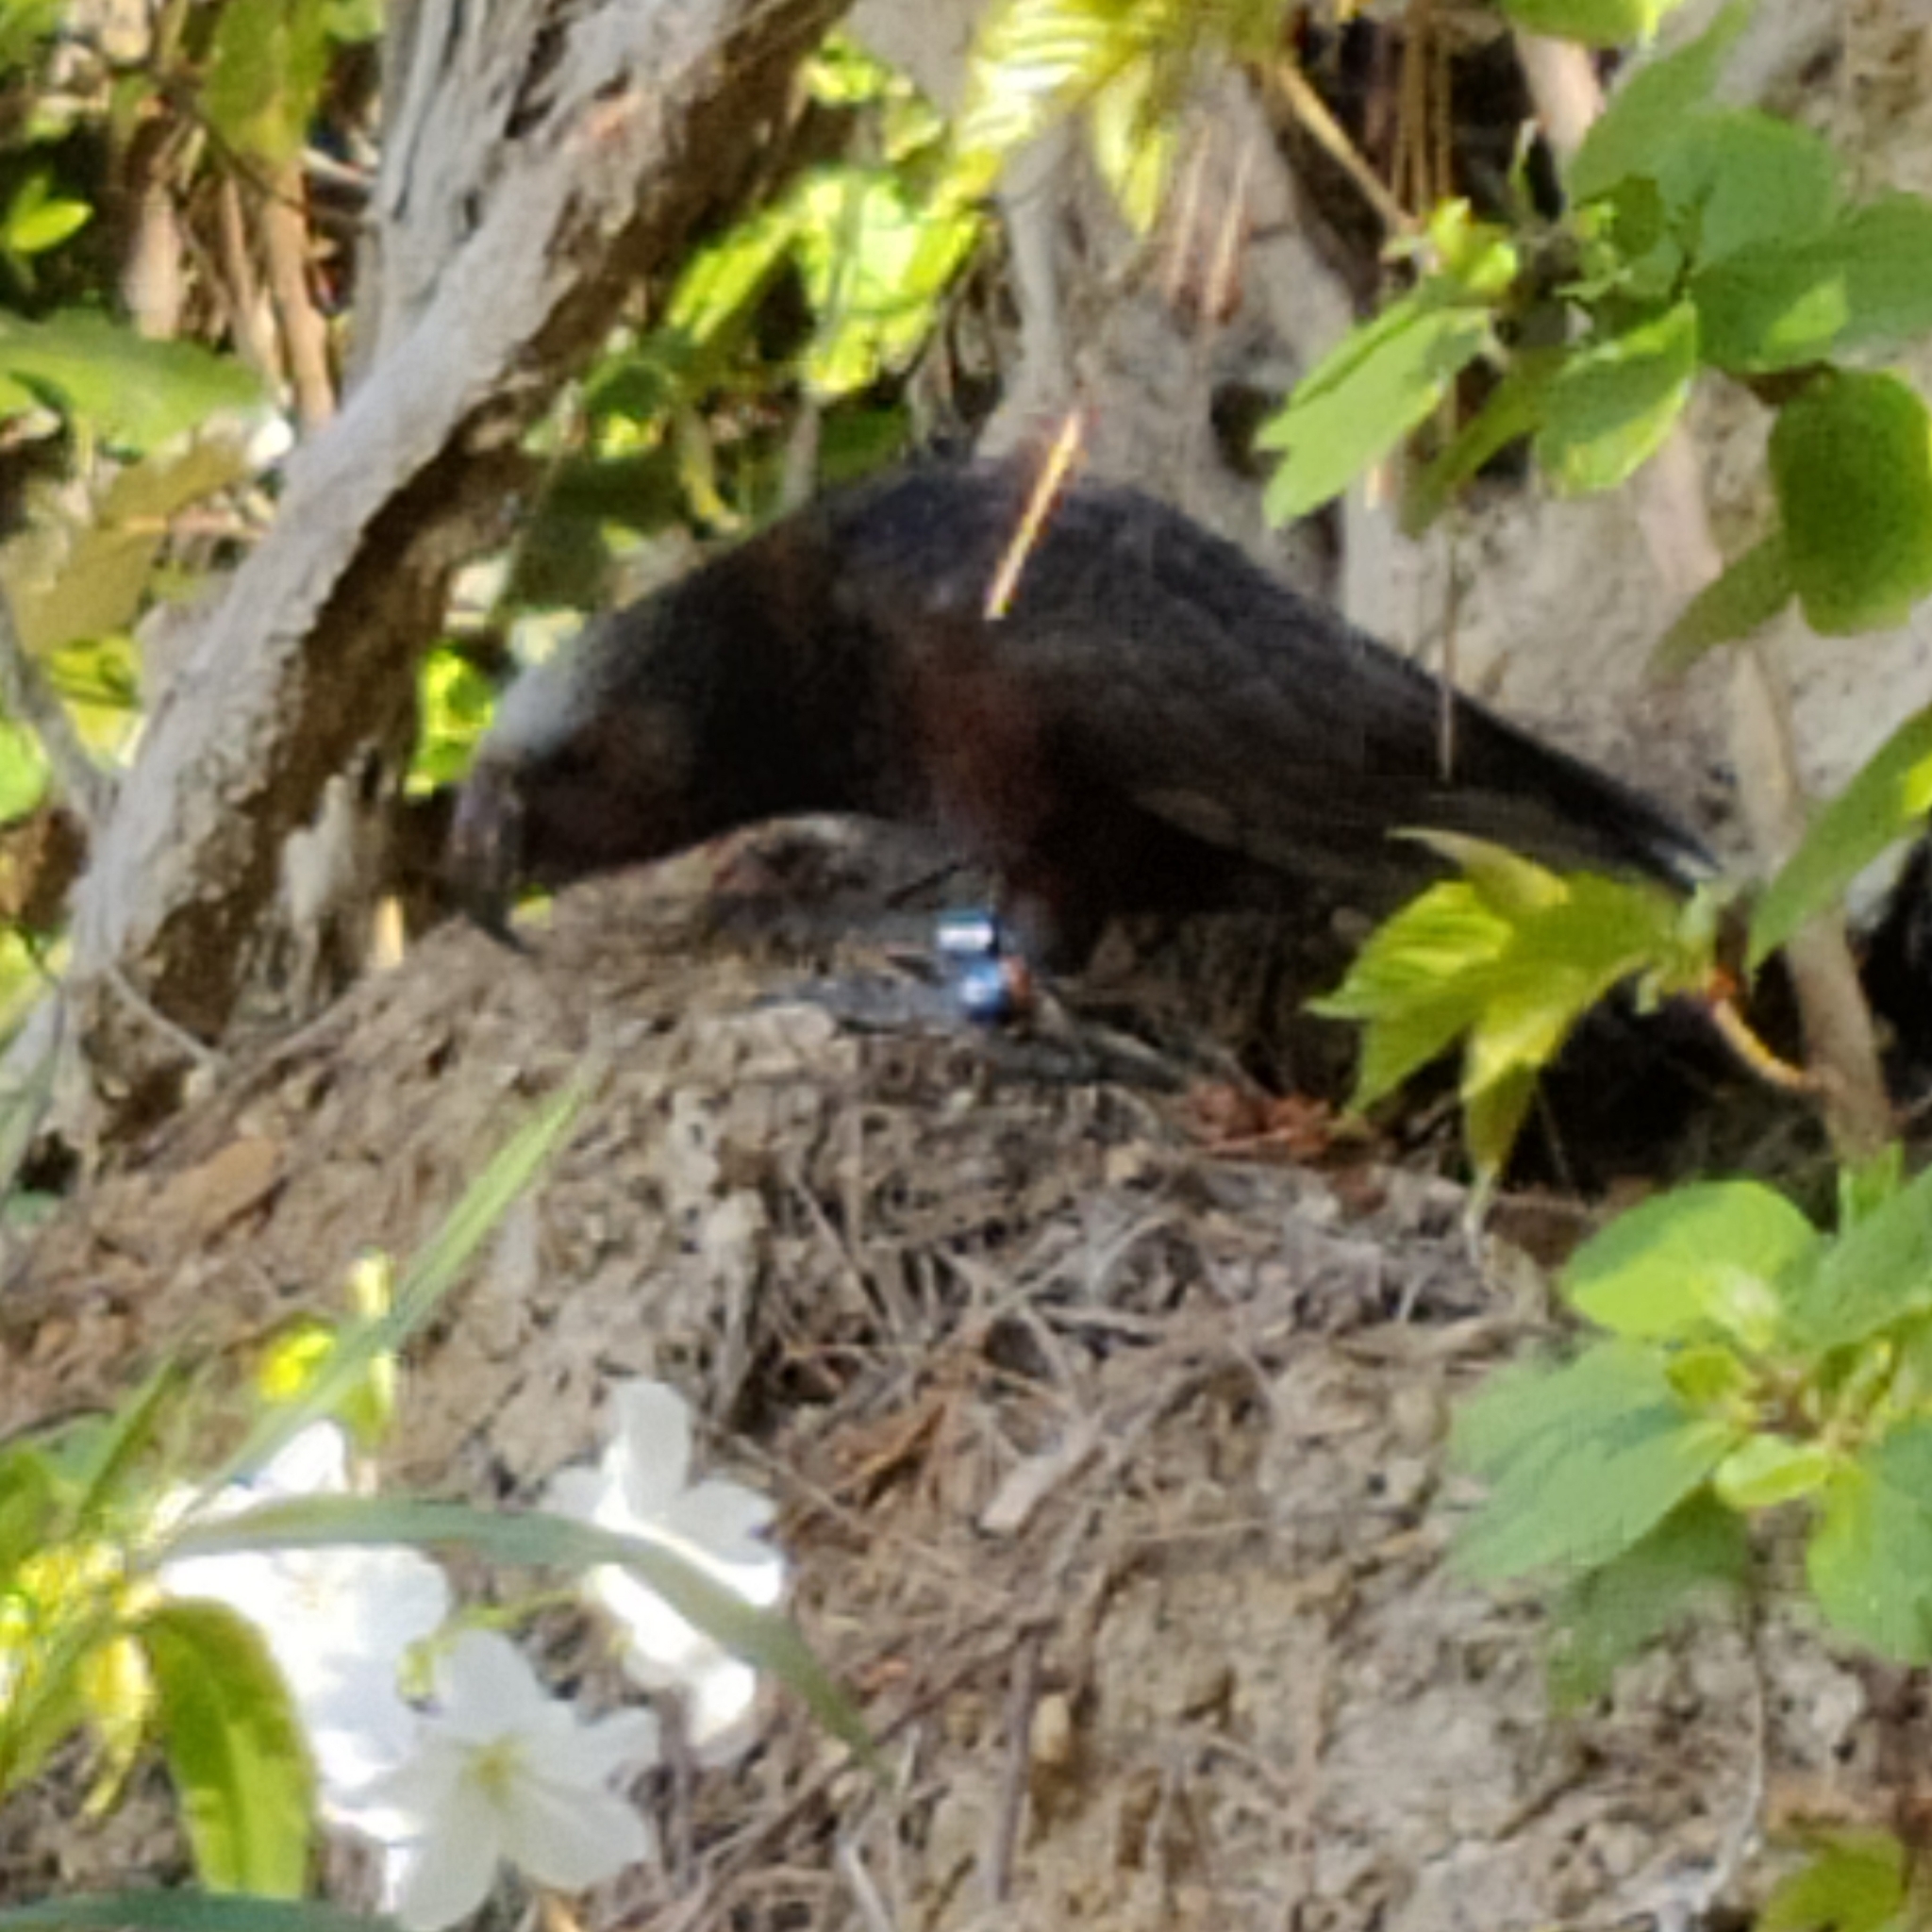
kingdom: Animalia
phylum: Chordata
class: Aves
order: Psittaciformes
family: Psittacidae
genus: Nestor
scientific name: Nestor meridionalis
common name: New zealand kaka
